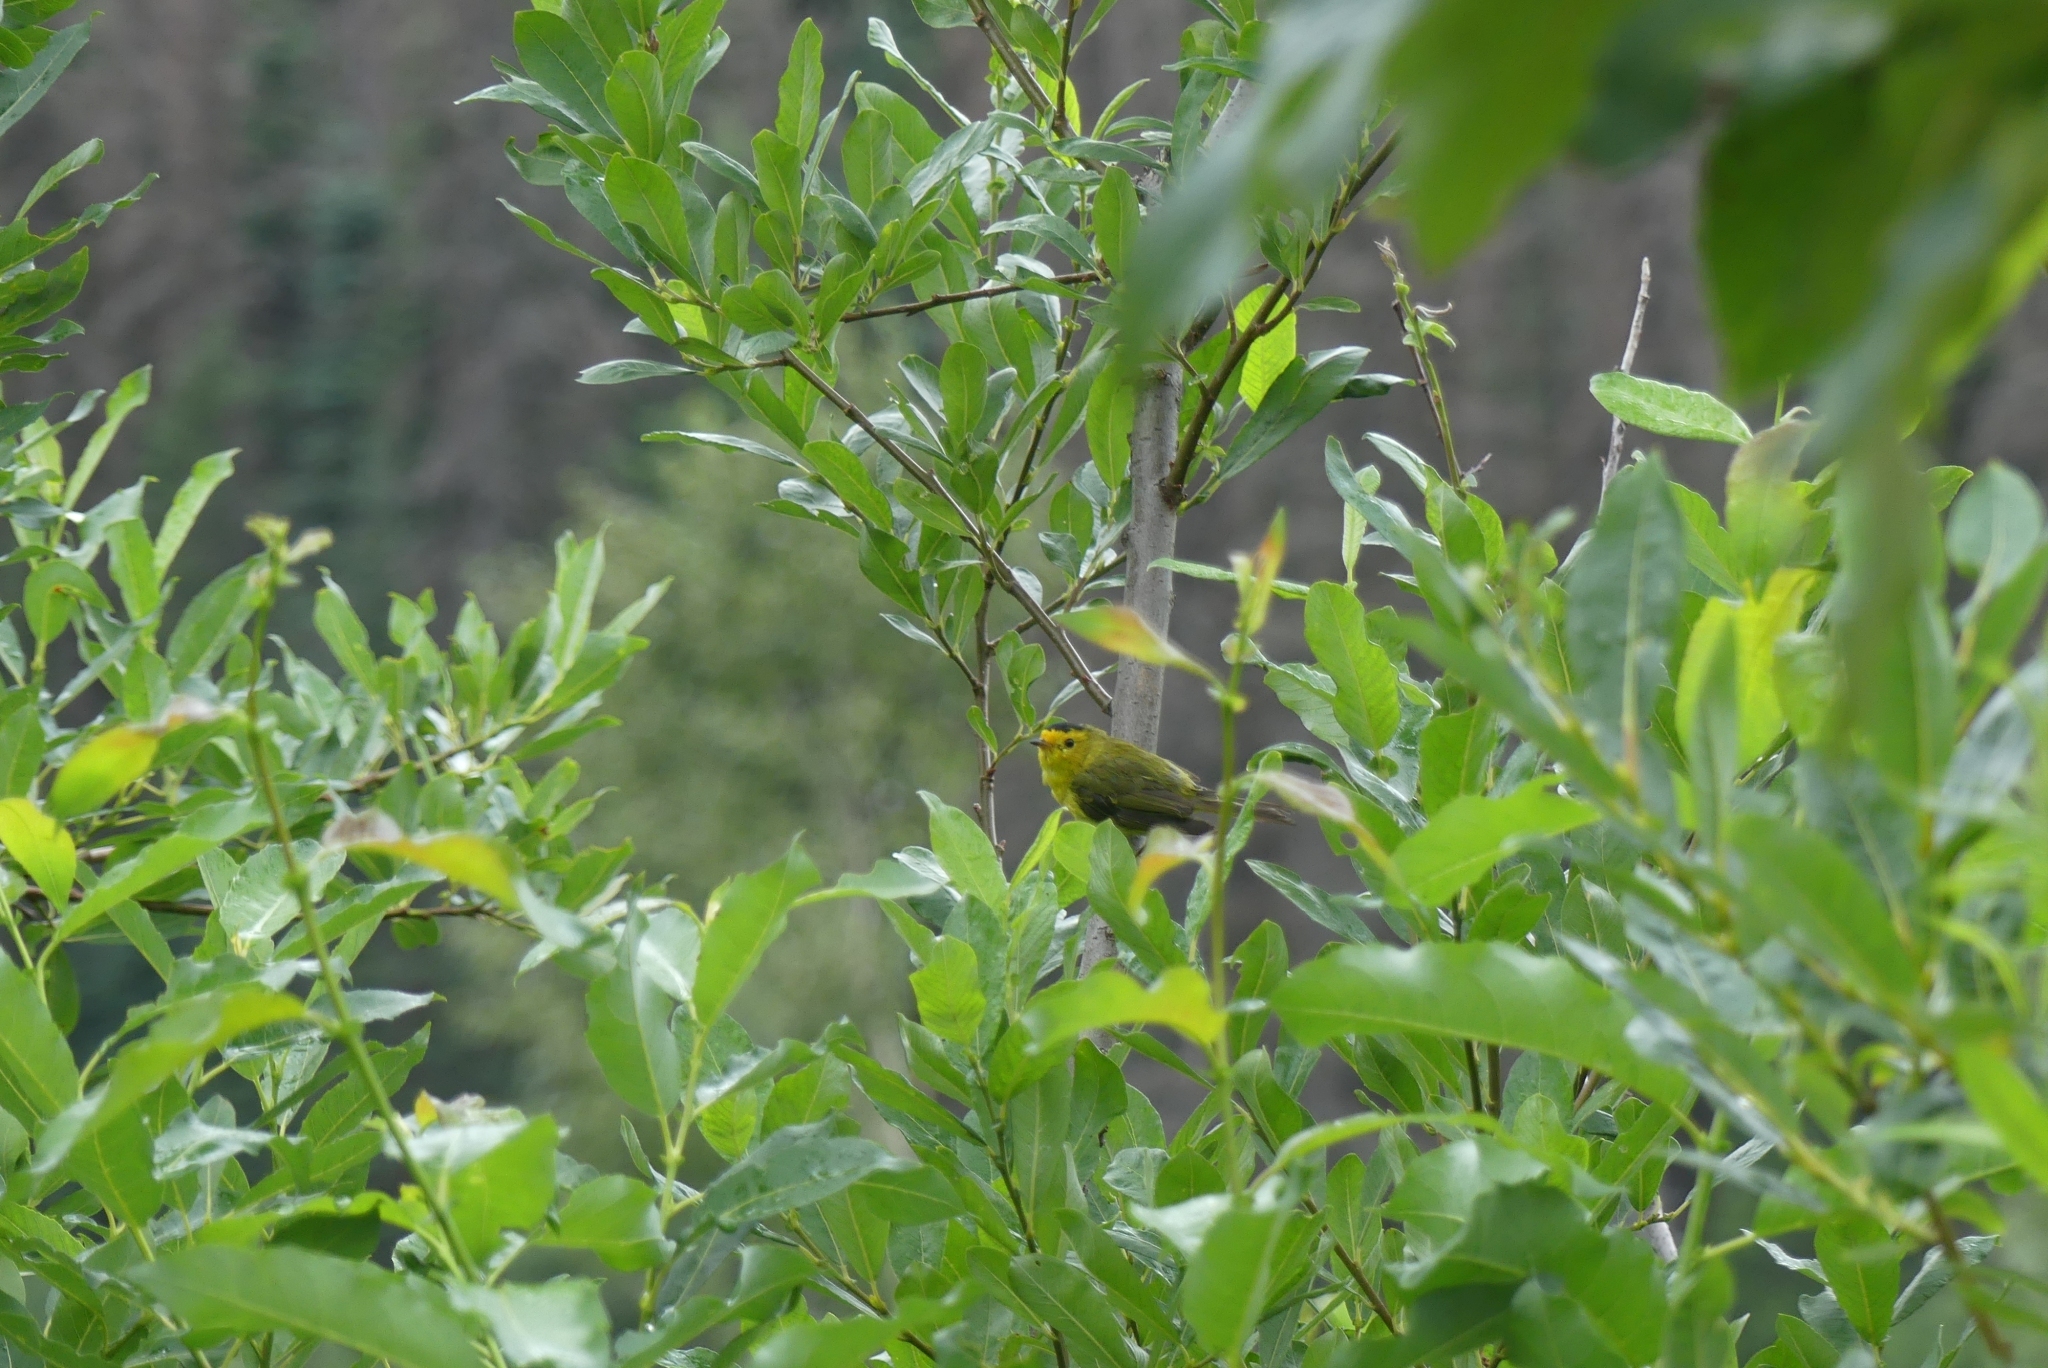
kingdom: Animalia
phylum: Chordata
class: Aves
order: Passeriformes
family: Parulidae
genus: Cardellina
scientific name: Cardellina pusilla
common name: Wilson's warbler
